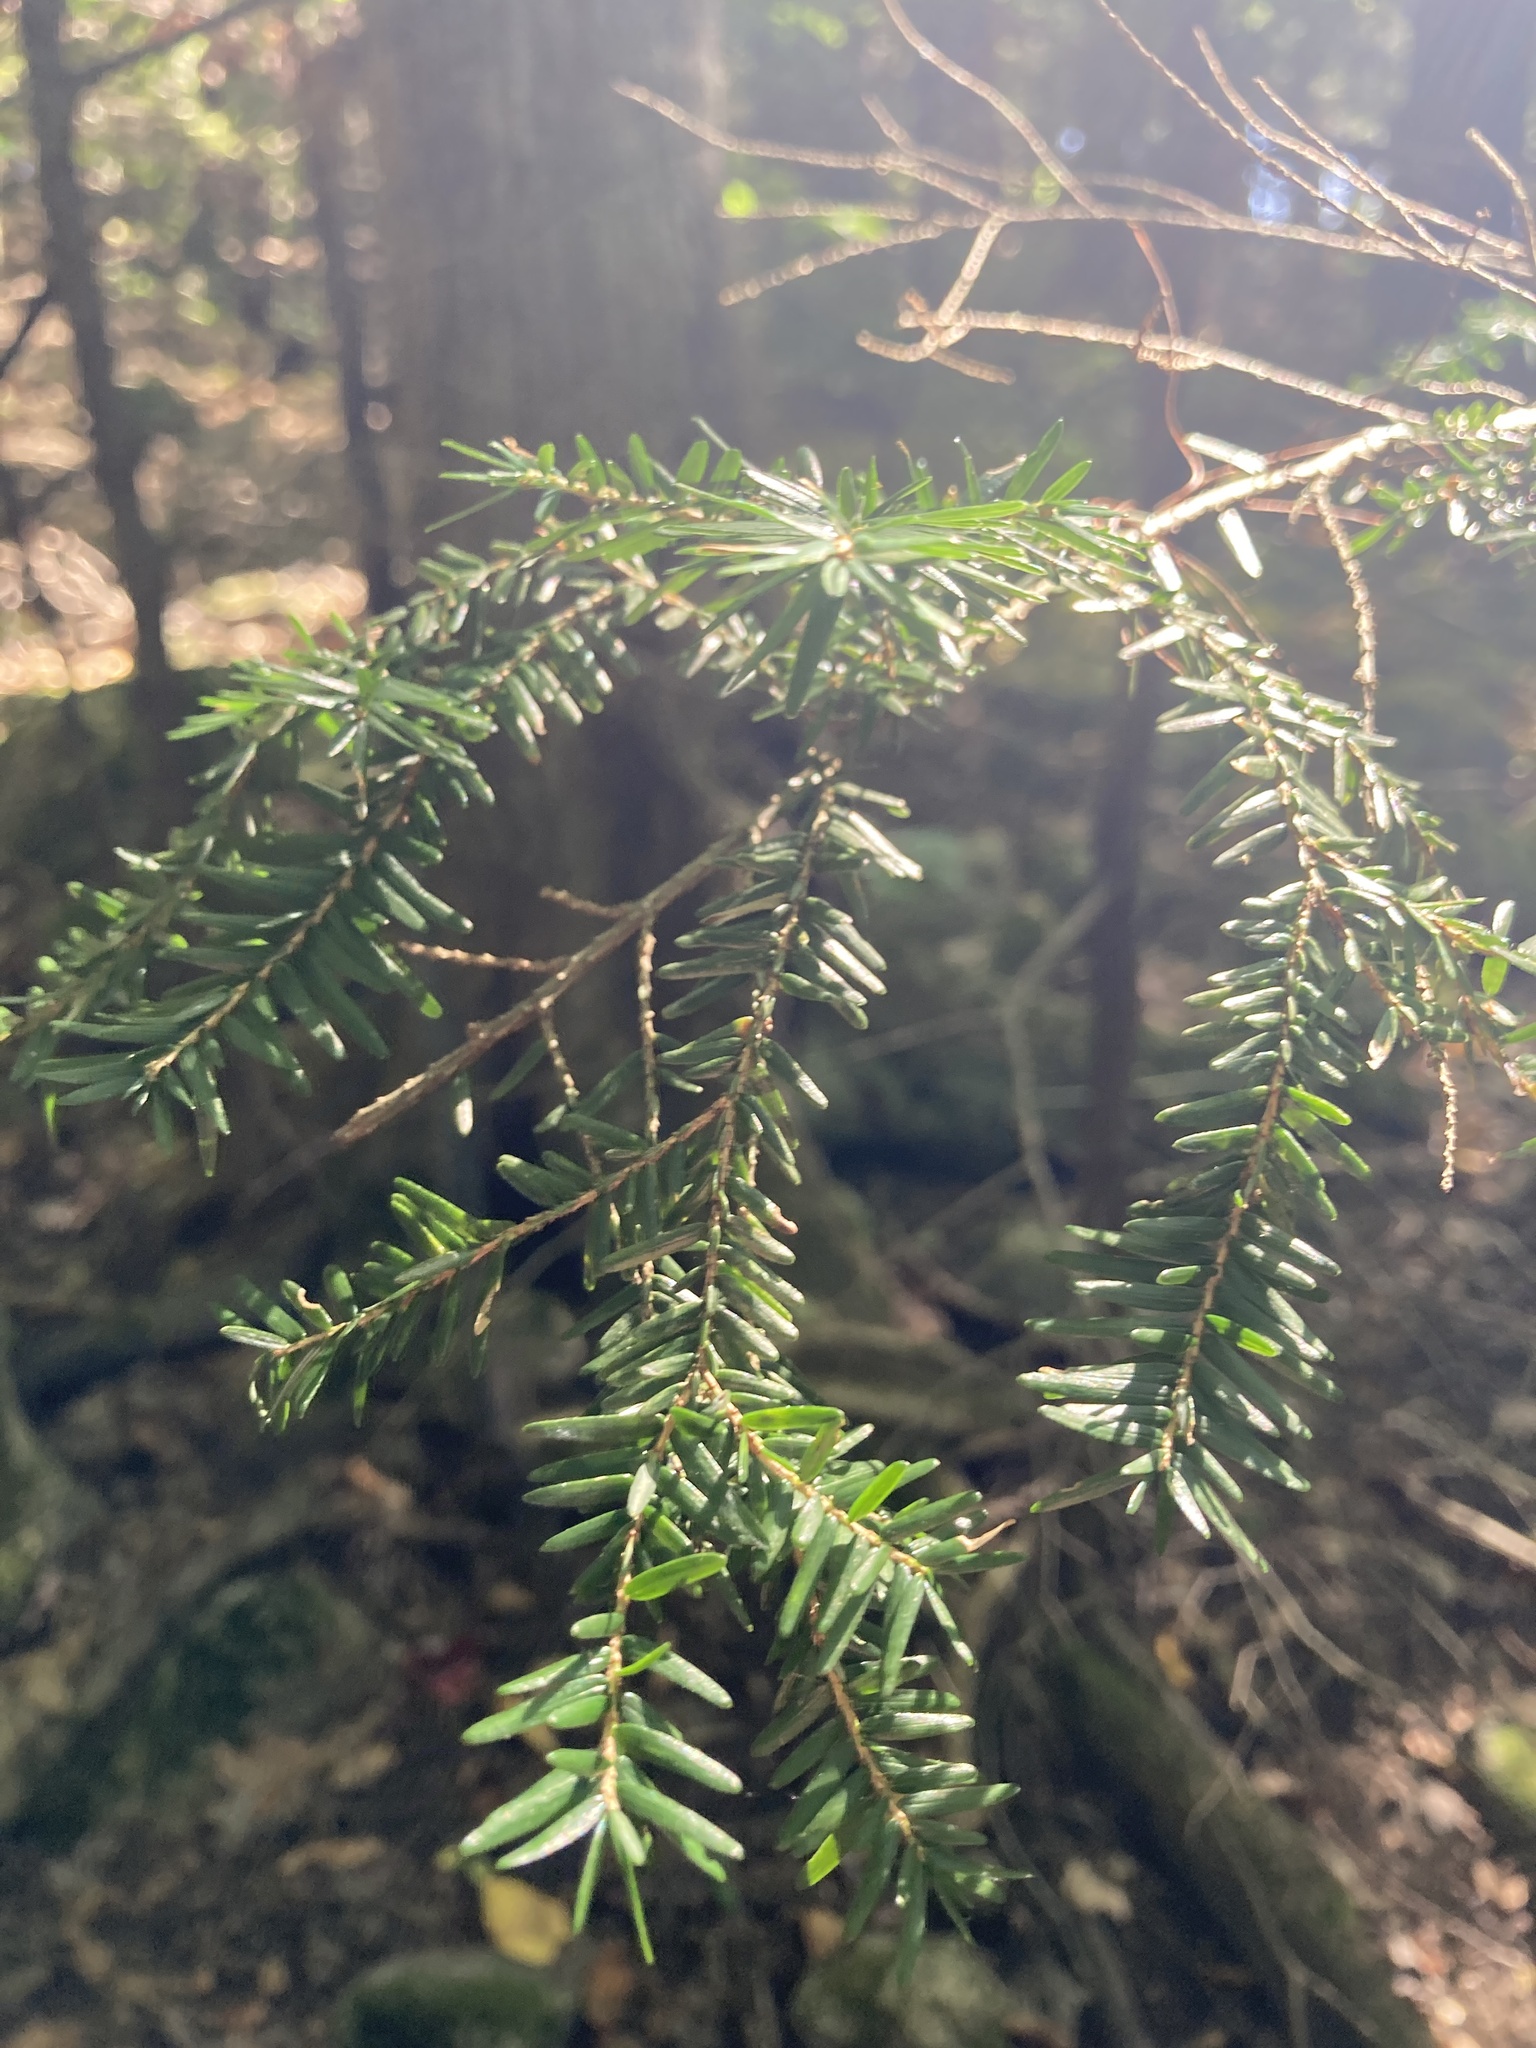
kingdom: Plantae
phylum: Tracheophyta
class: Pinopsida
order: Pinales
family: Pinaceae
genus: Tsuga
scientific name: Tsuga canadensis
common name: Eastern hemlock
